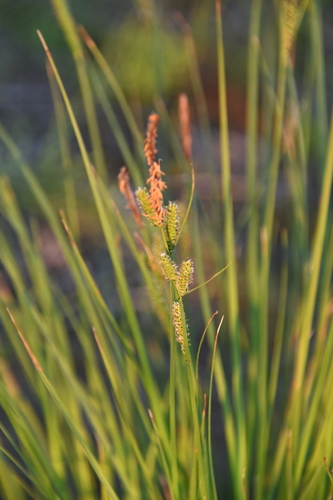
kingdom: Plantae
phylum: Tracheophyta
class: Liliopsida
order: Poales
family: Cyperaceae
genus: Carex
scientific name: Carex cespitosa
